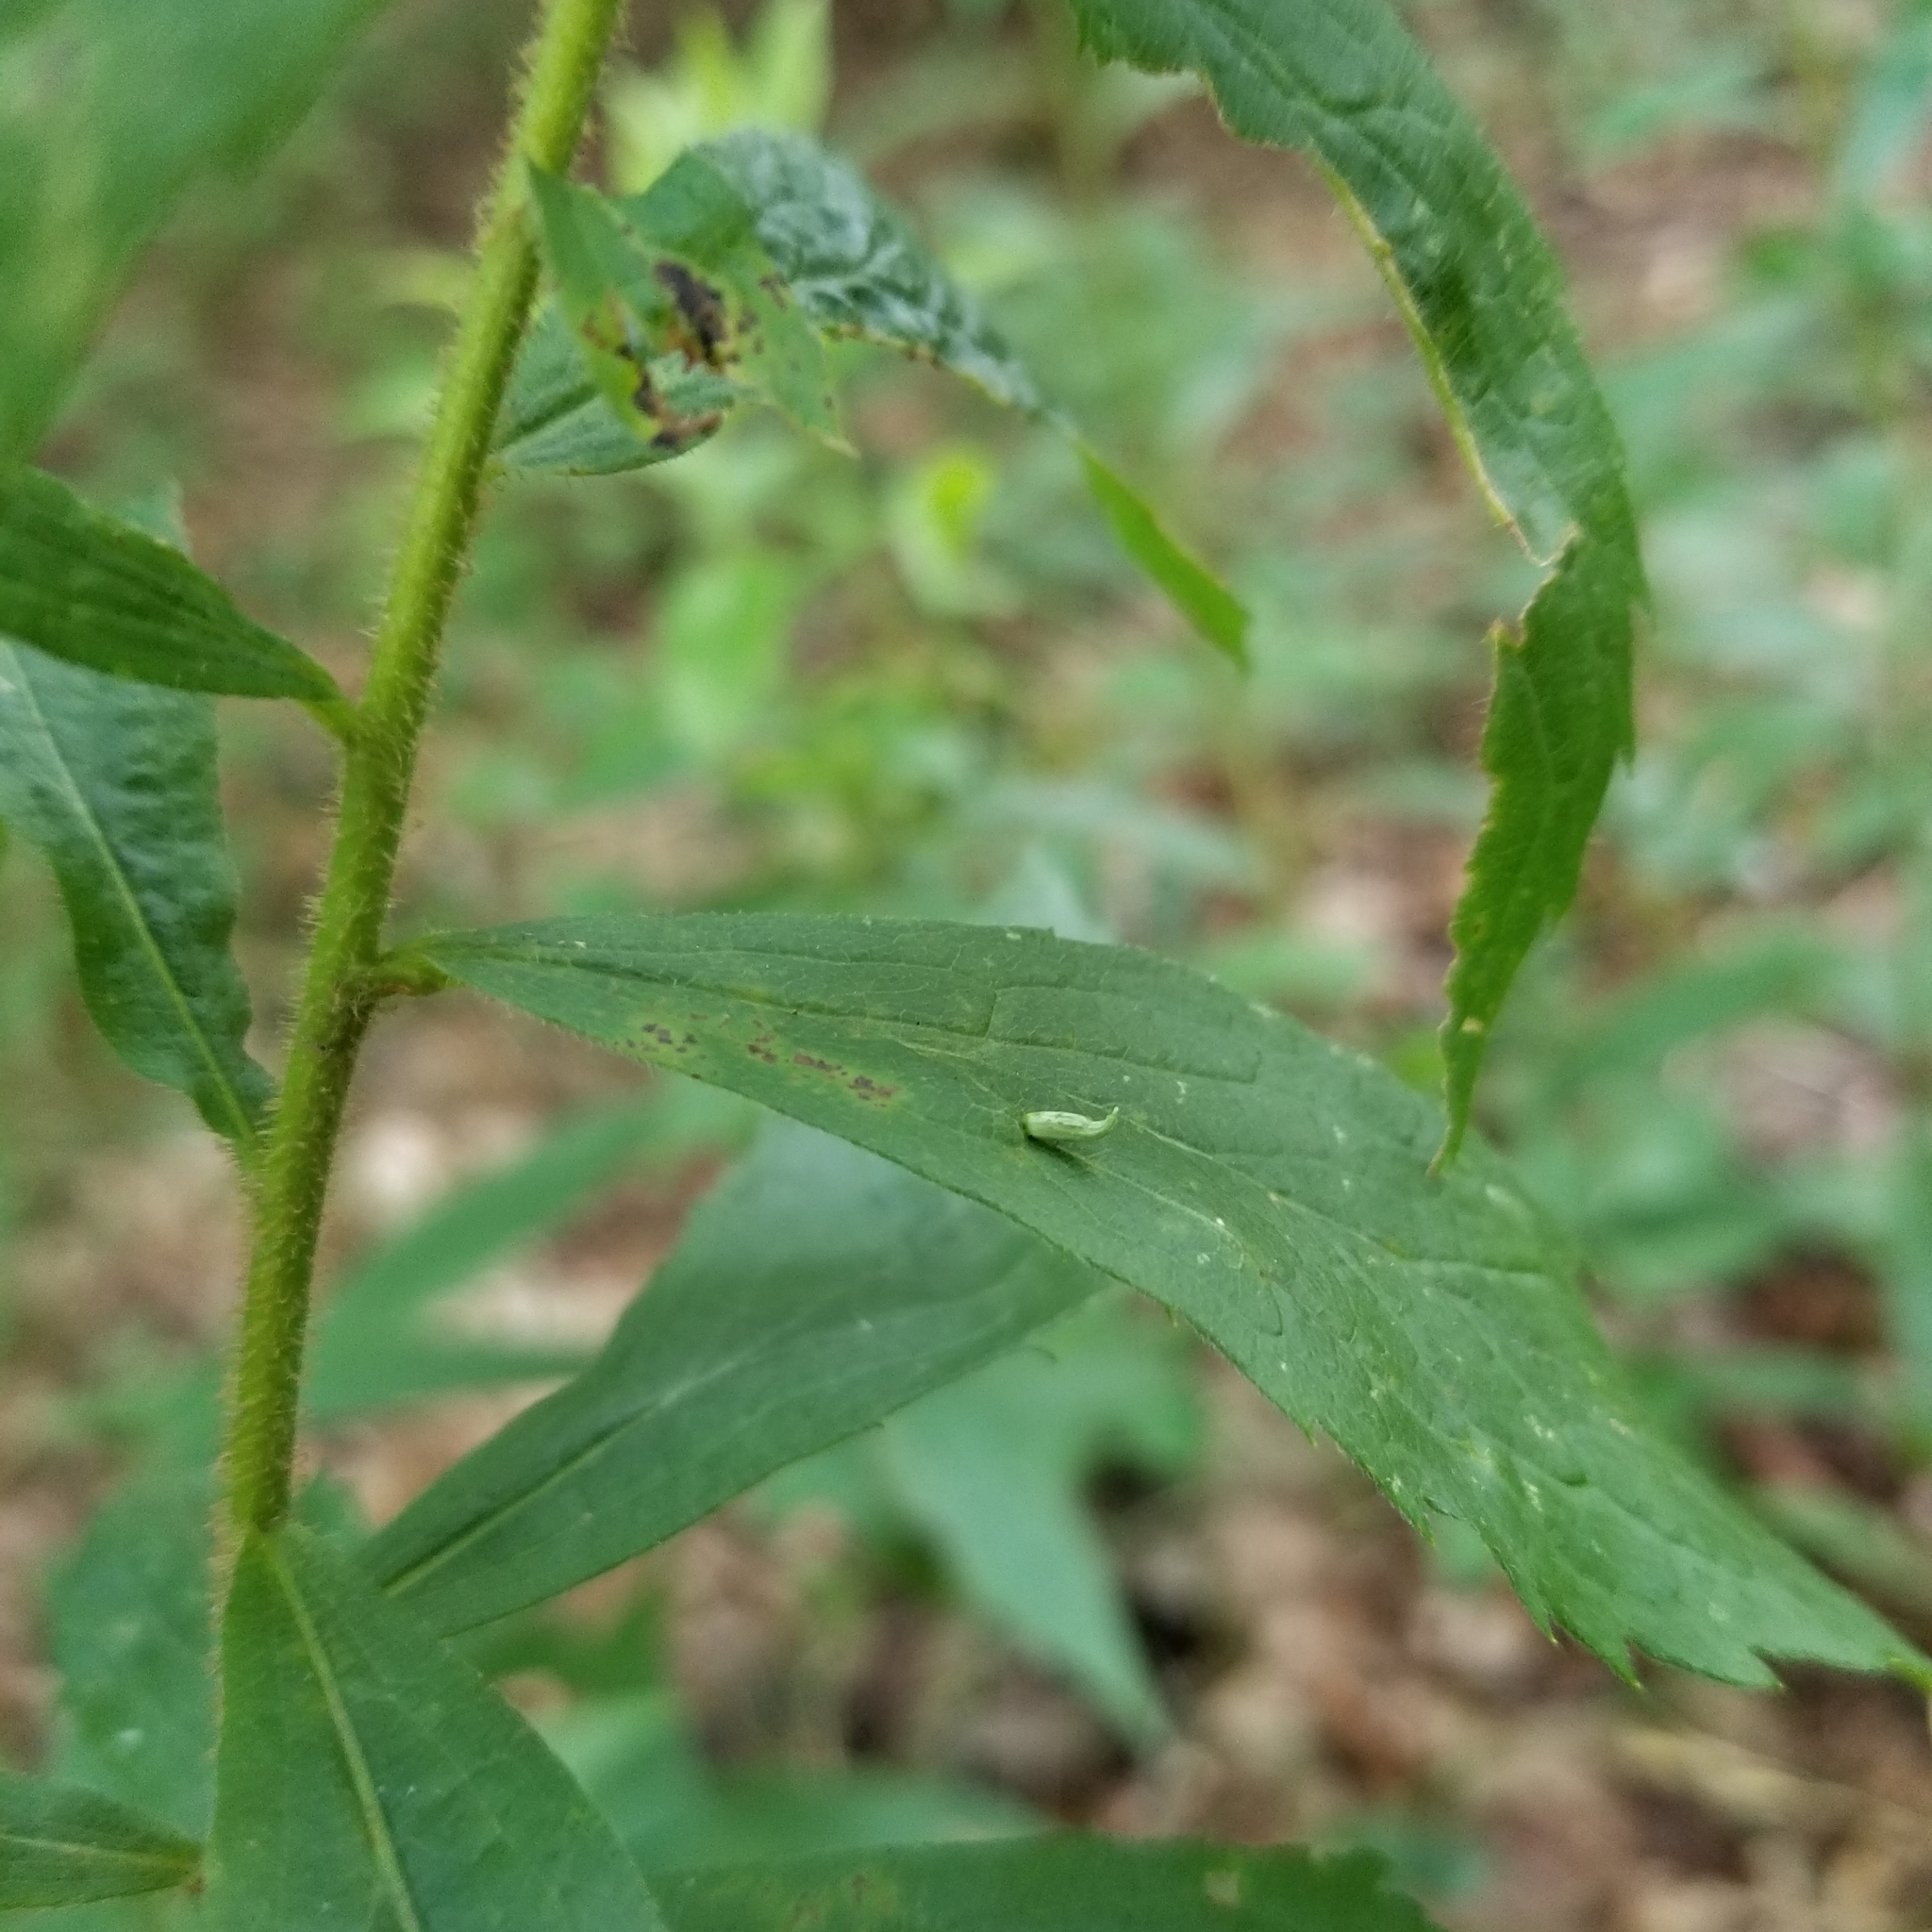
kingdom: Animalia
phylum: Arthropoda
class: Insecta
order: Diptera
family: Cecidomyiidae
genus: Rhopalomyia
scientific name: Rhopalomyia clarkei
